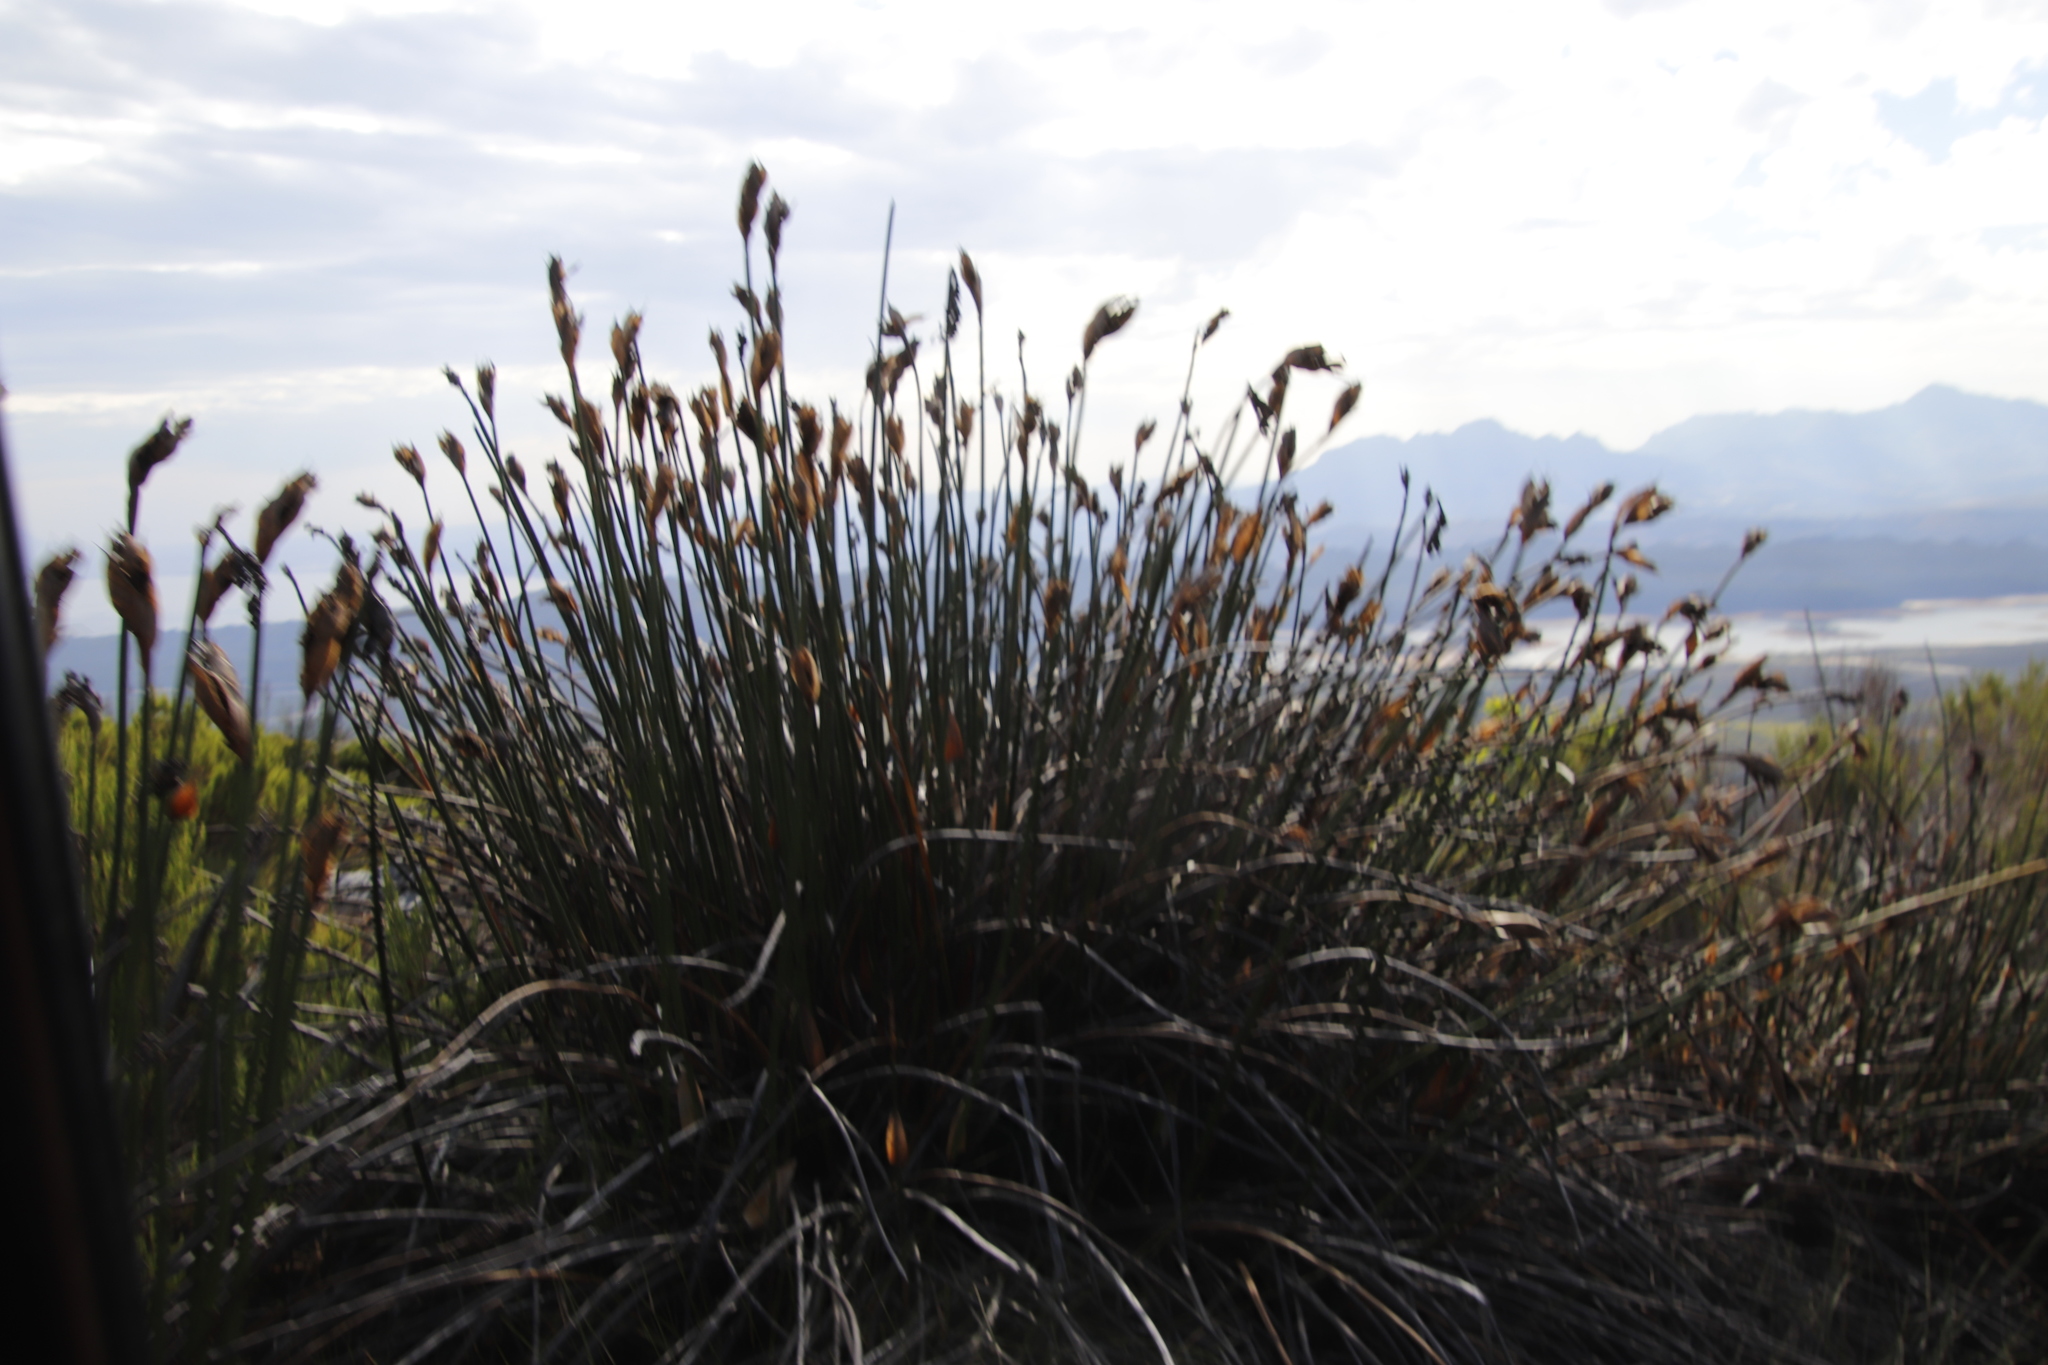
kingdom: Plantae
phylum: Tracheophyta
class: Liliopsida
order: Poales
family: Restionaceae
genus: Elegia
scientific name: Elegia mucronata
